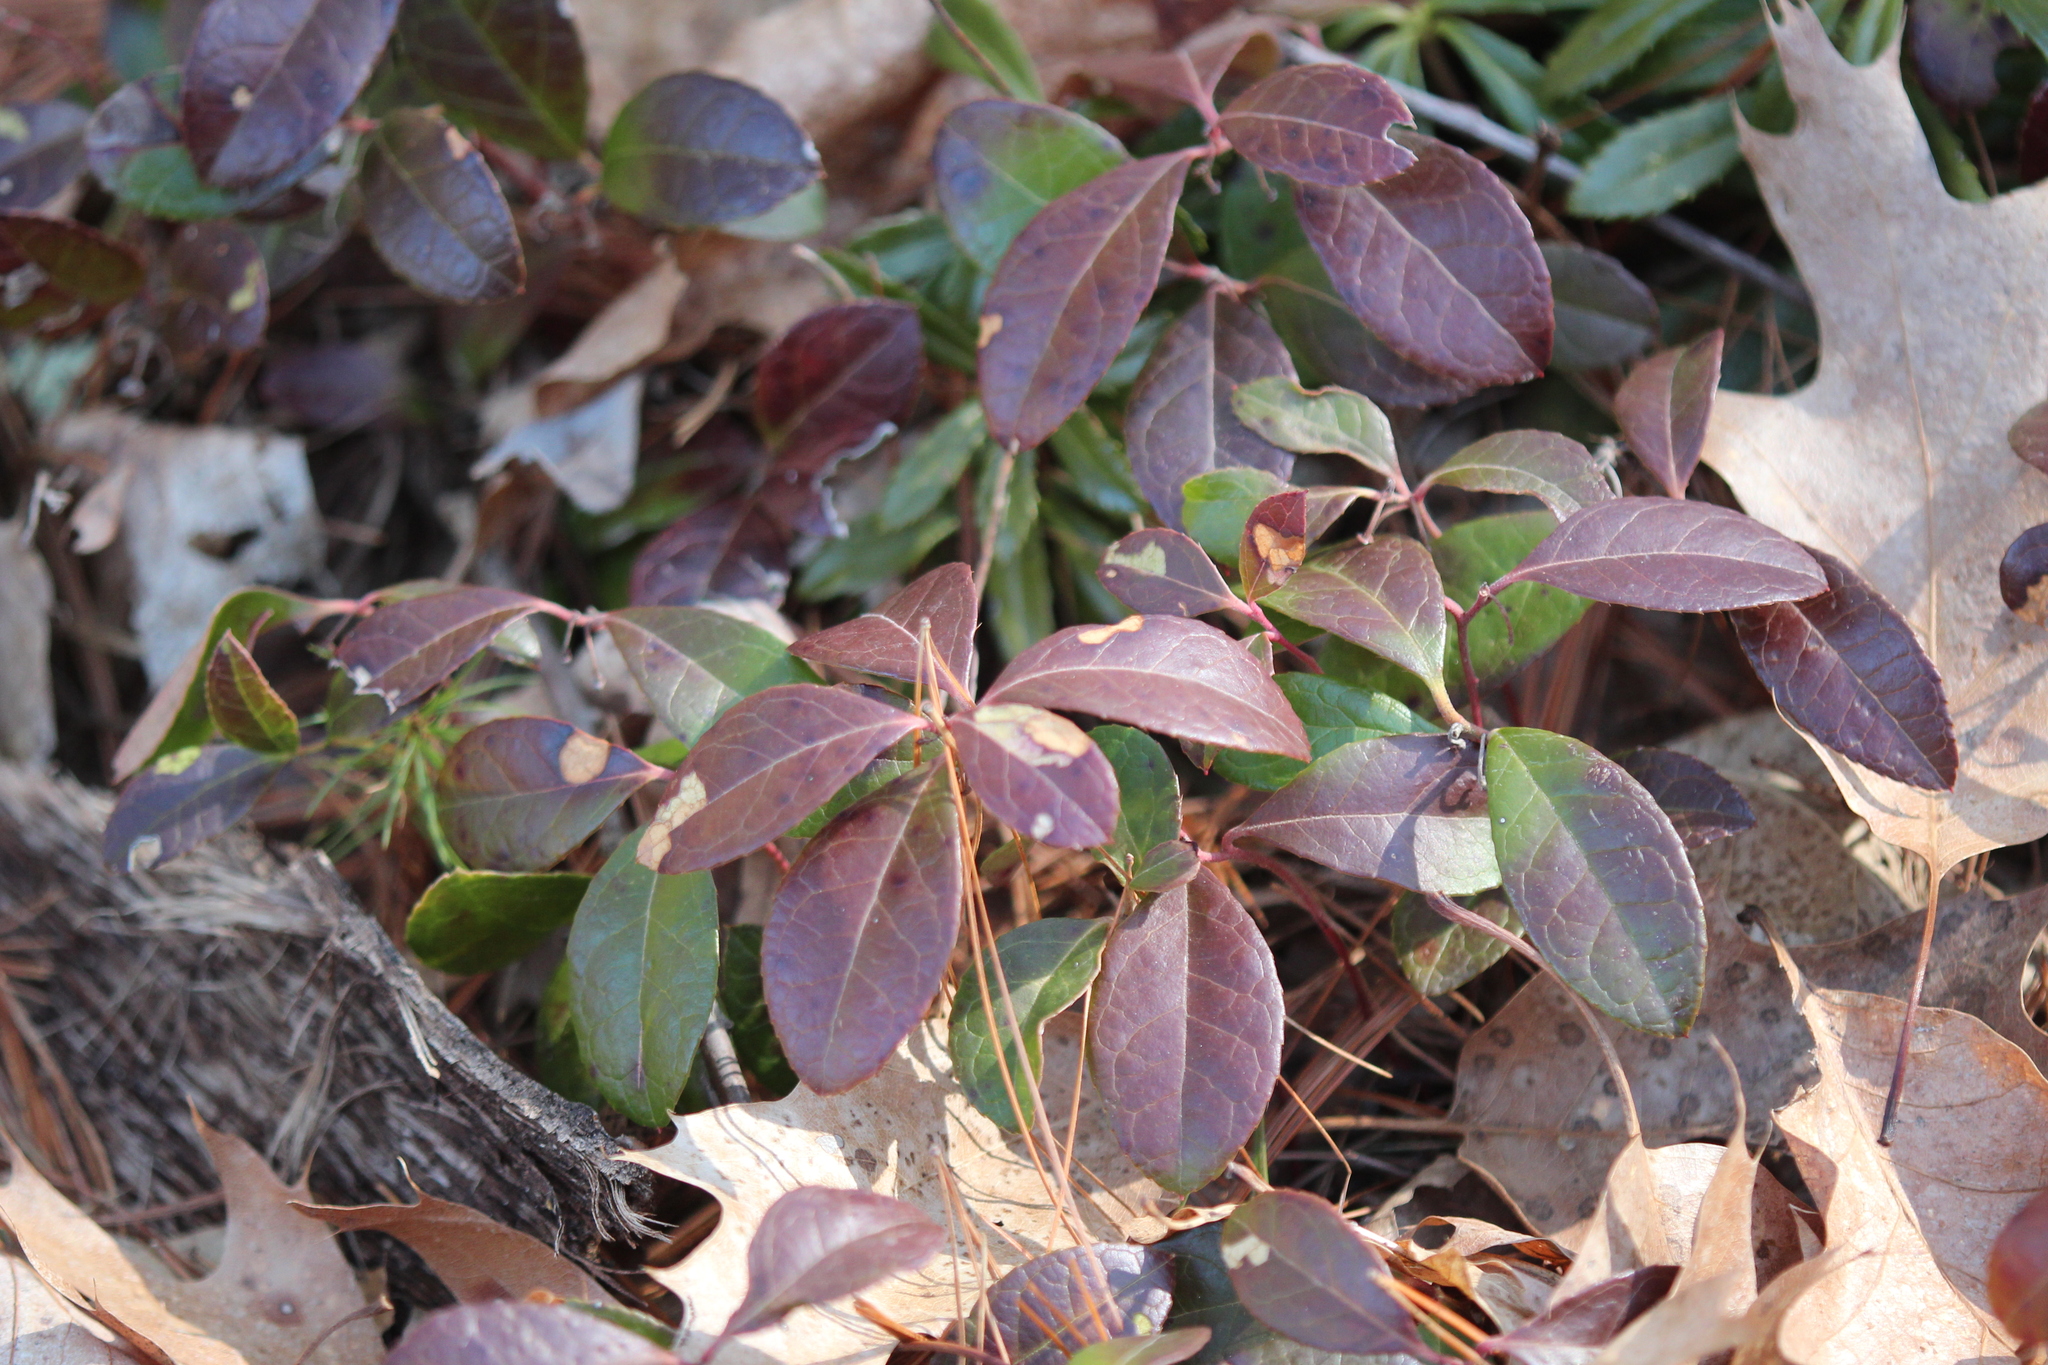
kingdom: Plantae
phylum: Tracheophyta
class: Magnoliopsida
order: Ericales
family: Ericaceae
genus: Gaultheria
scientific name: Gaultheria procumbens
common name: Checkerberry
